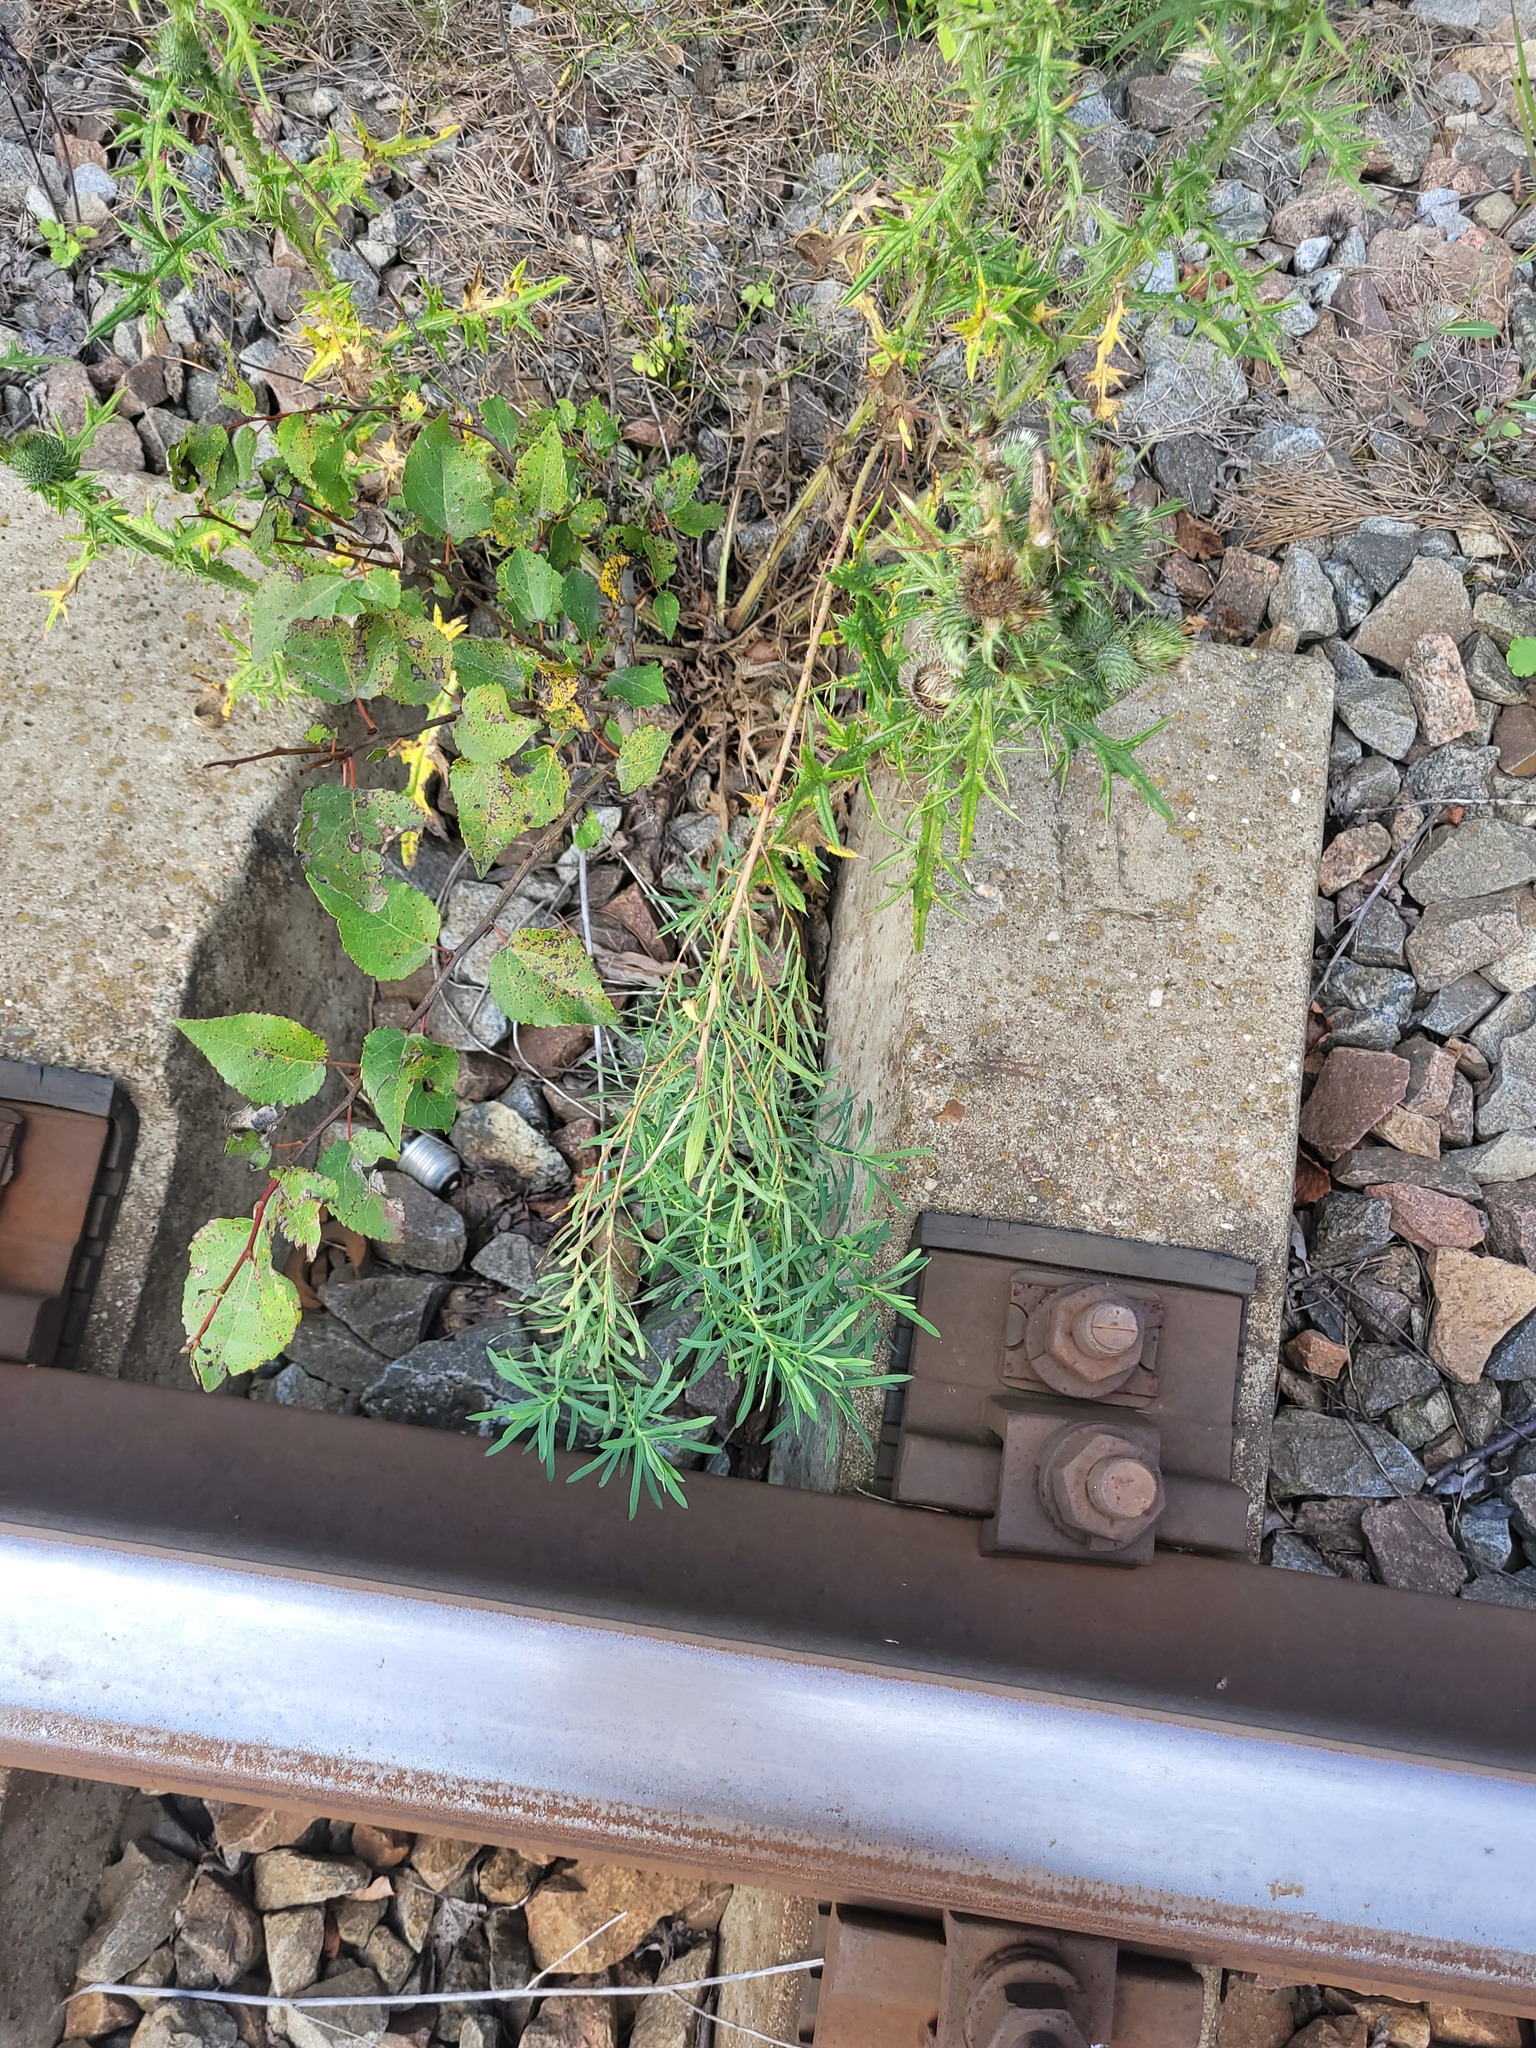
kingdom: Plantae
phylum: Tracheophyta
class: Magnoliopsida
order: Malpighiales
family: Euphorbiaceae
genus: Euphorbia
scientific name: Euphorbia virgata
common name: Leafy spurge
